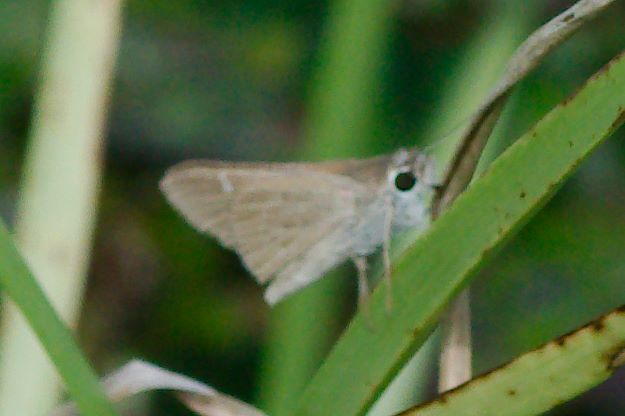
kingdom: Animalia
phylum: Arthropoda
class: Insecta
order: Lepidoptera
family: Hesperiidae
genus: Lerodea
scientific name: Lerodea eufala
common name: Eufala skipper
